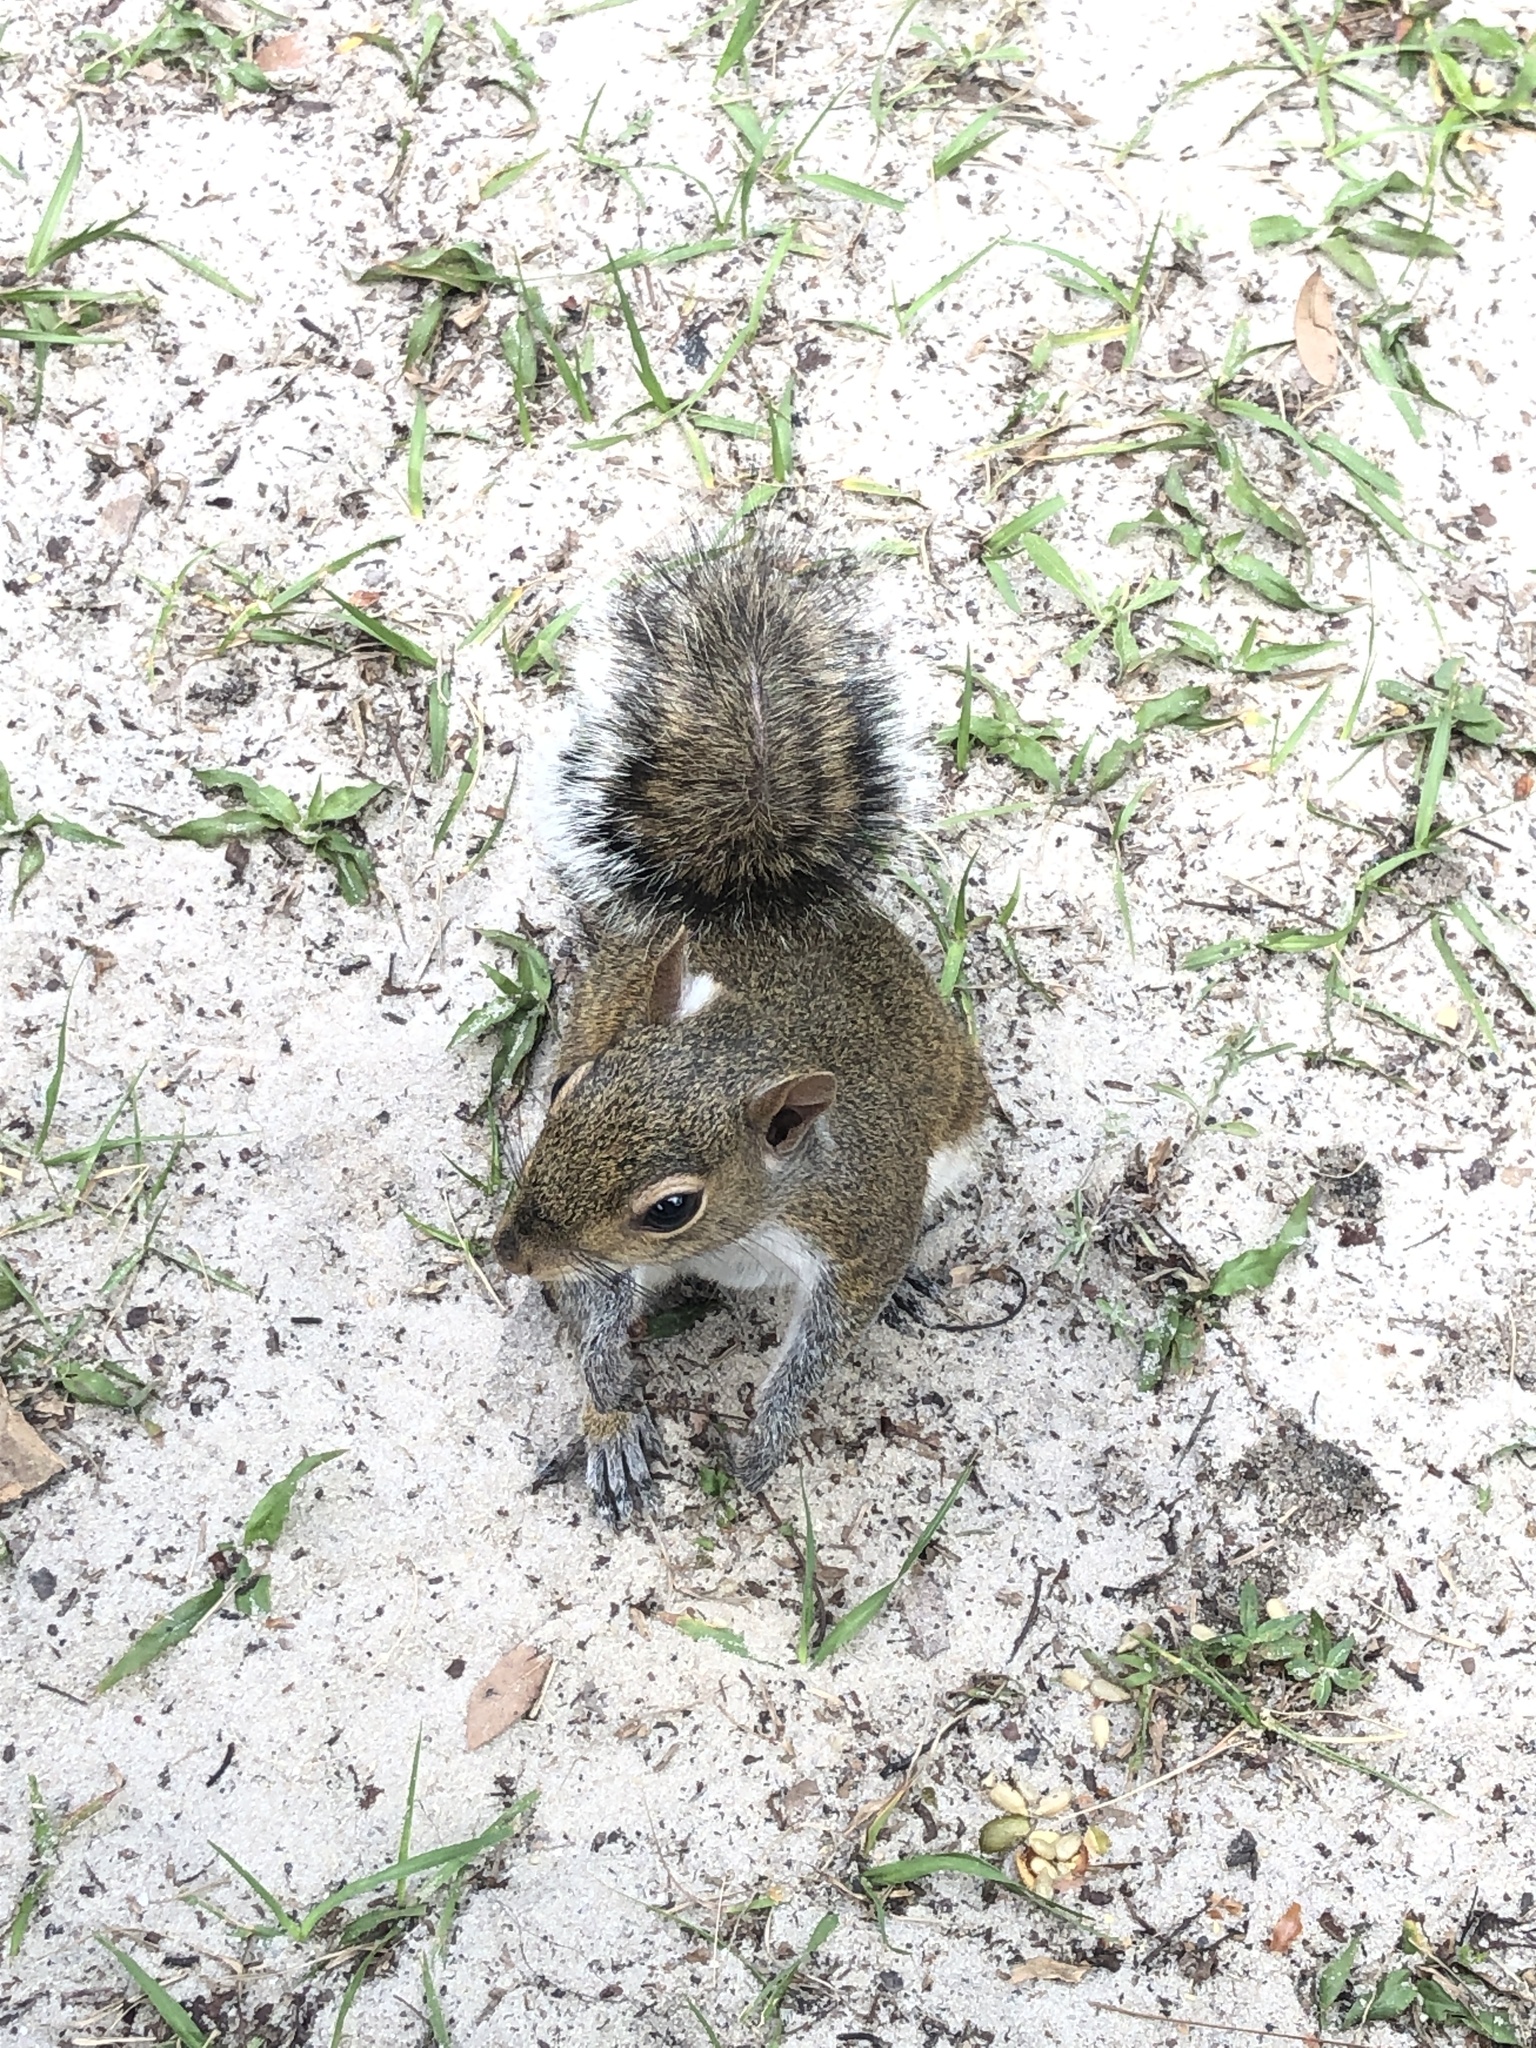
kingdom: Animalia
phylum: Chordata
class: Mammalia
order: Rodentia
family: Sciuridae
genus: Sciurus
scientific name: Sciurus carolinensis
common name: Eastern gray squirrel
